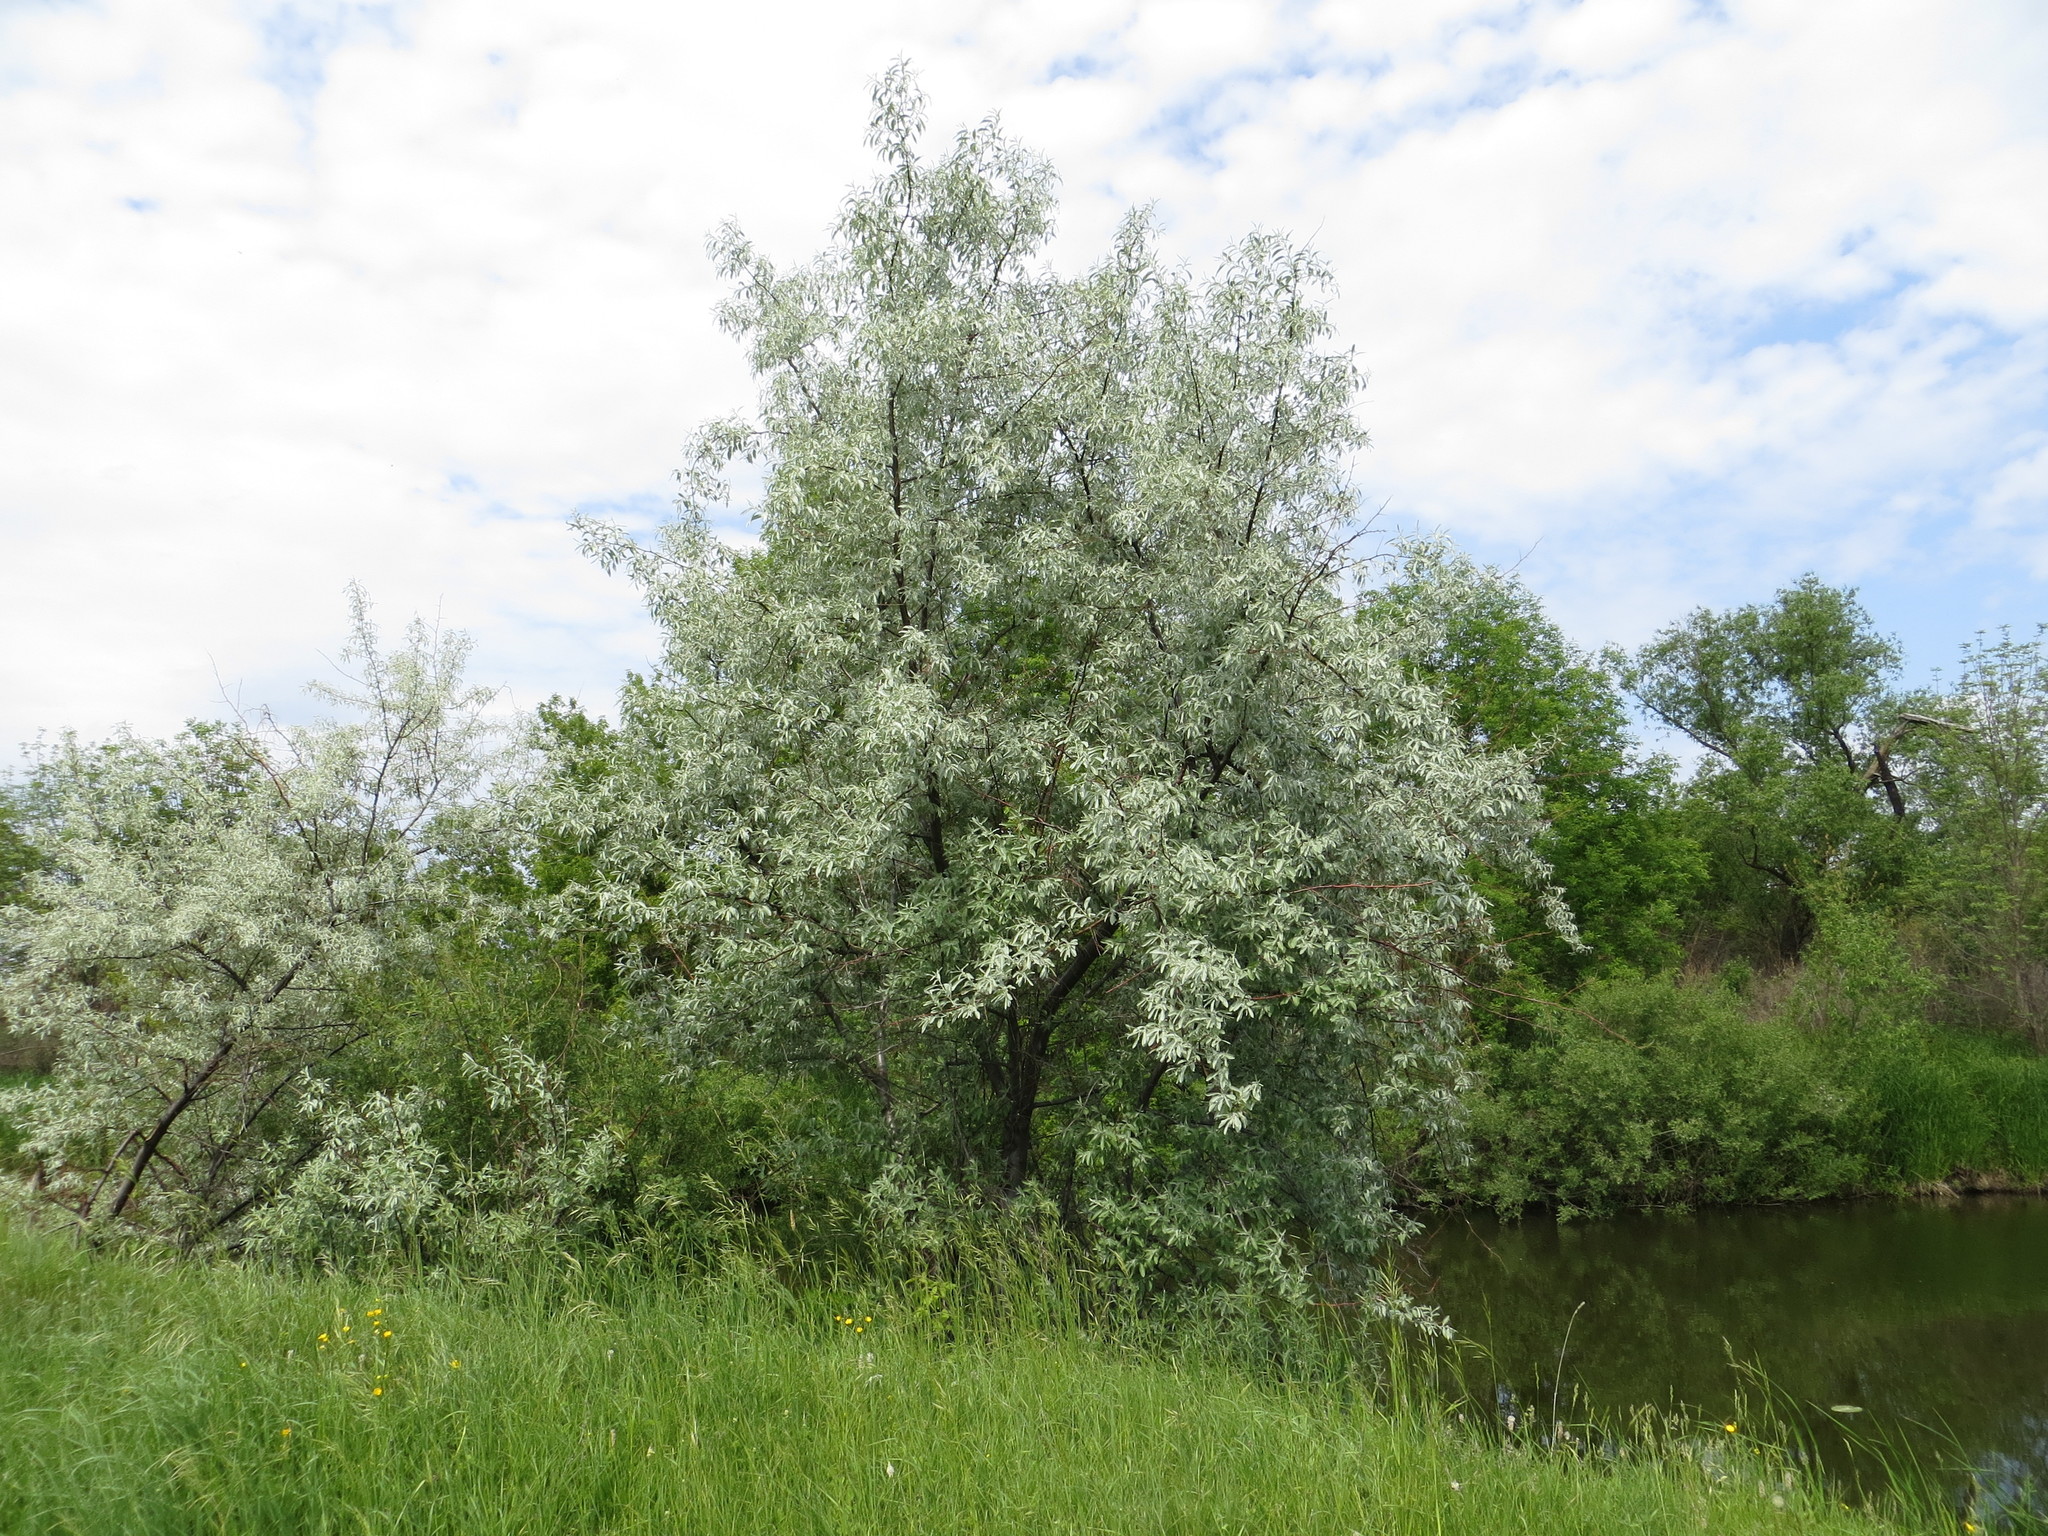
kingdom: Plantae
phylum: Tracheophyta
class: Magnoliopsida
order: Rosales
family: Elaeagnaceae
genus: Elaeagnus
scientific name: Elaeagnus angustifolia
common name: Russian olive
